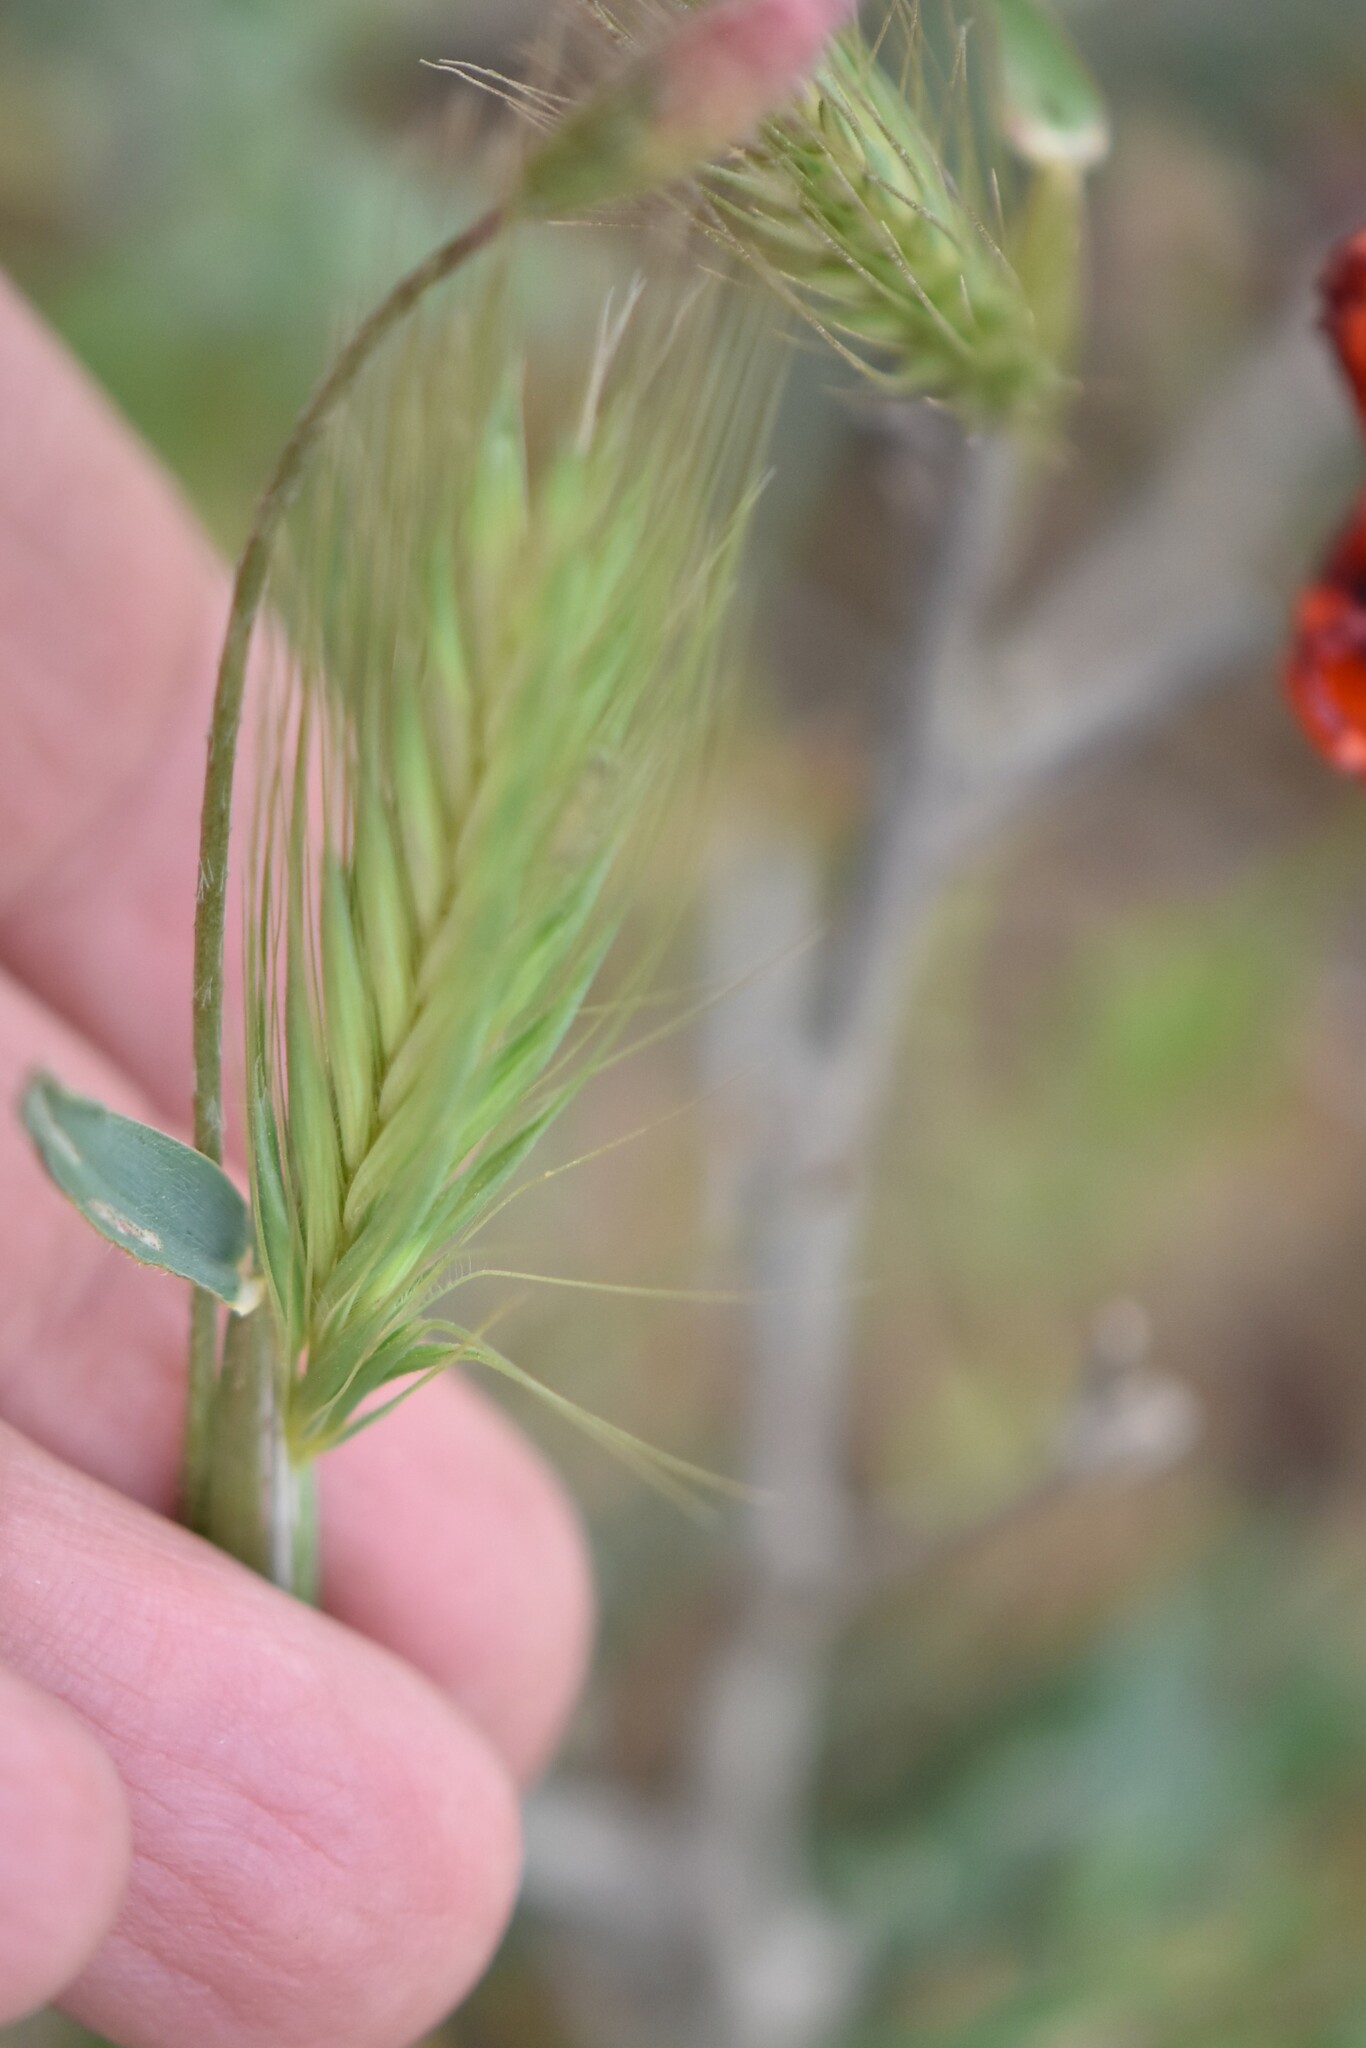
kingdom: Plantae
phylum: Tracheophyta
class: Liliopsida
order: Poales
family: Poaceae
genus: Hordeum
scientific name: Hordeum murinum
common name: Wall barley
